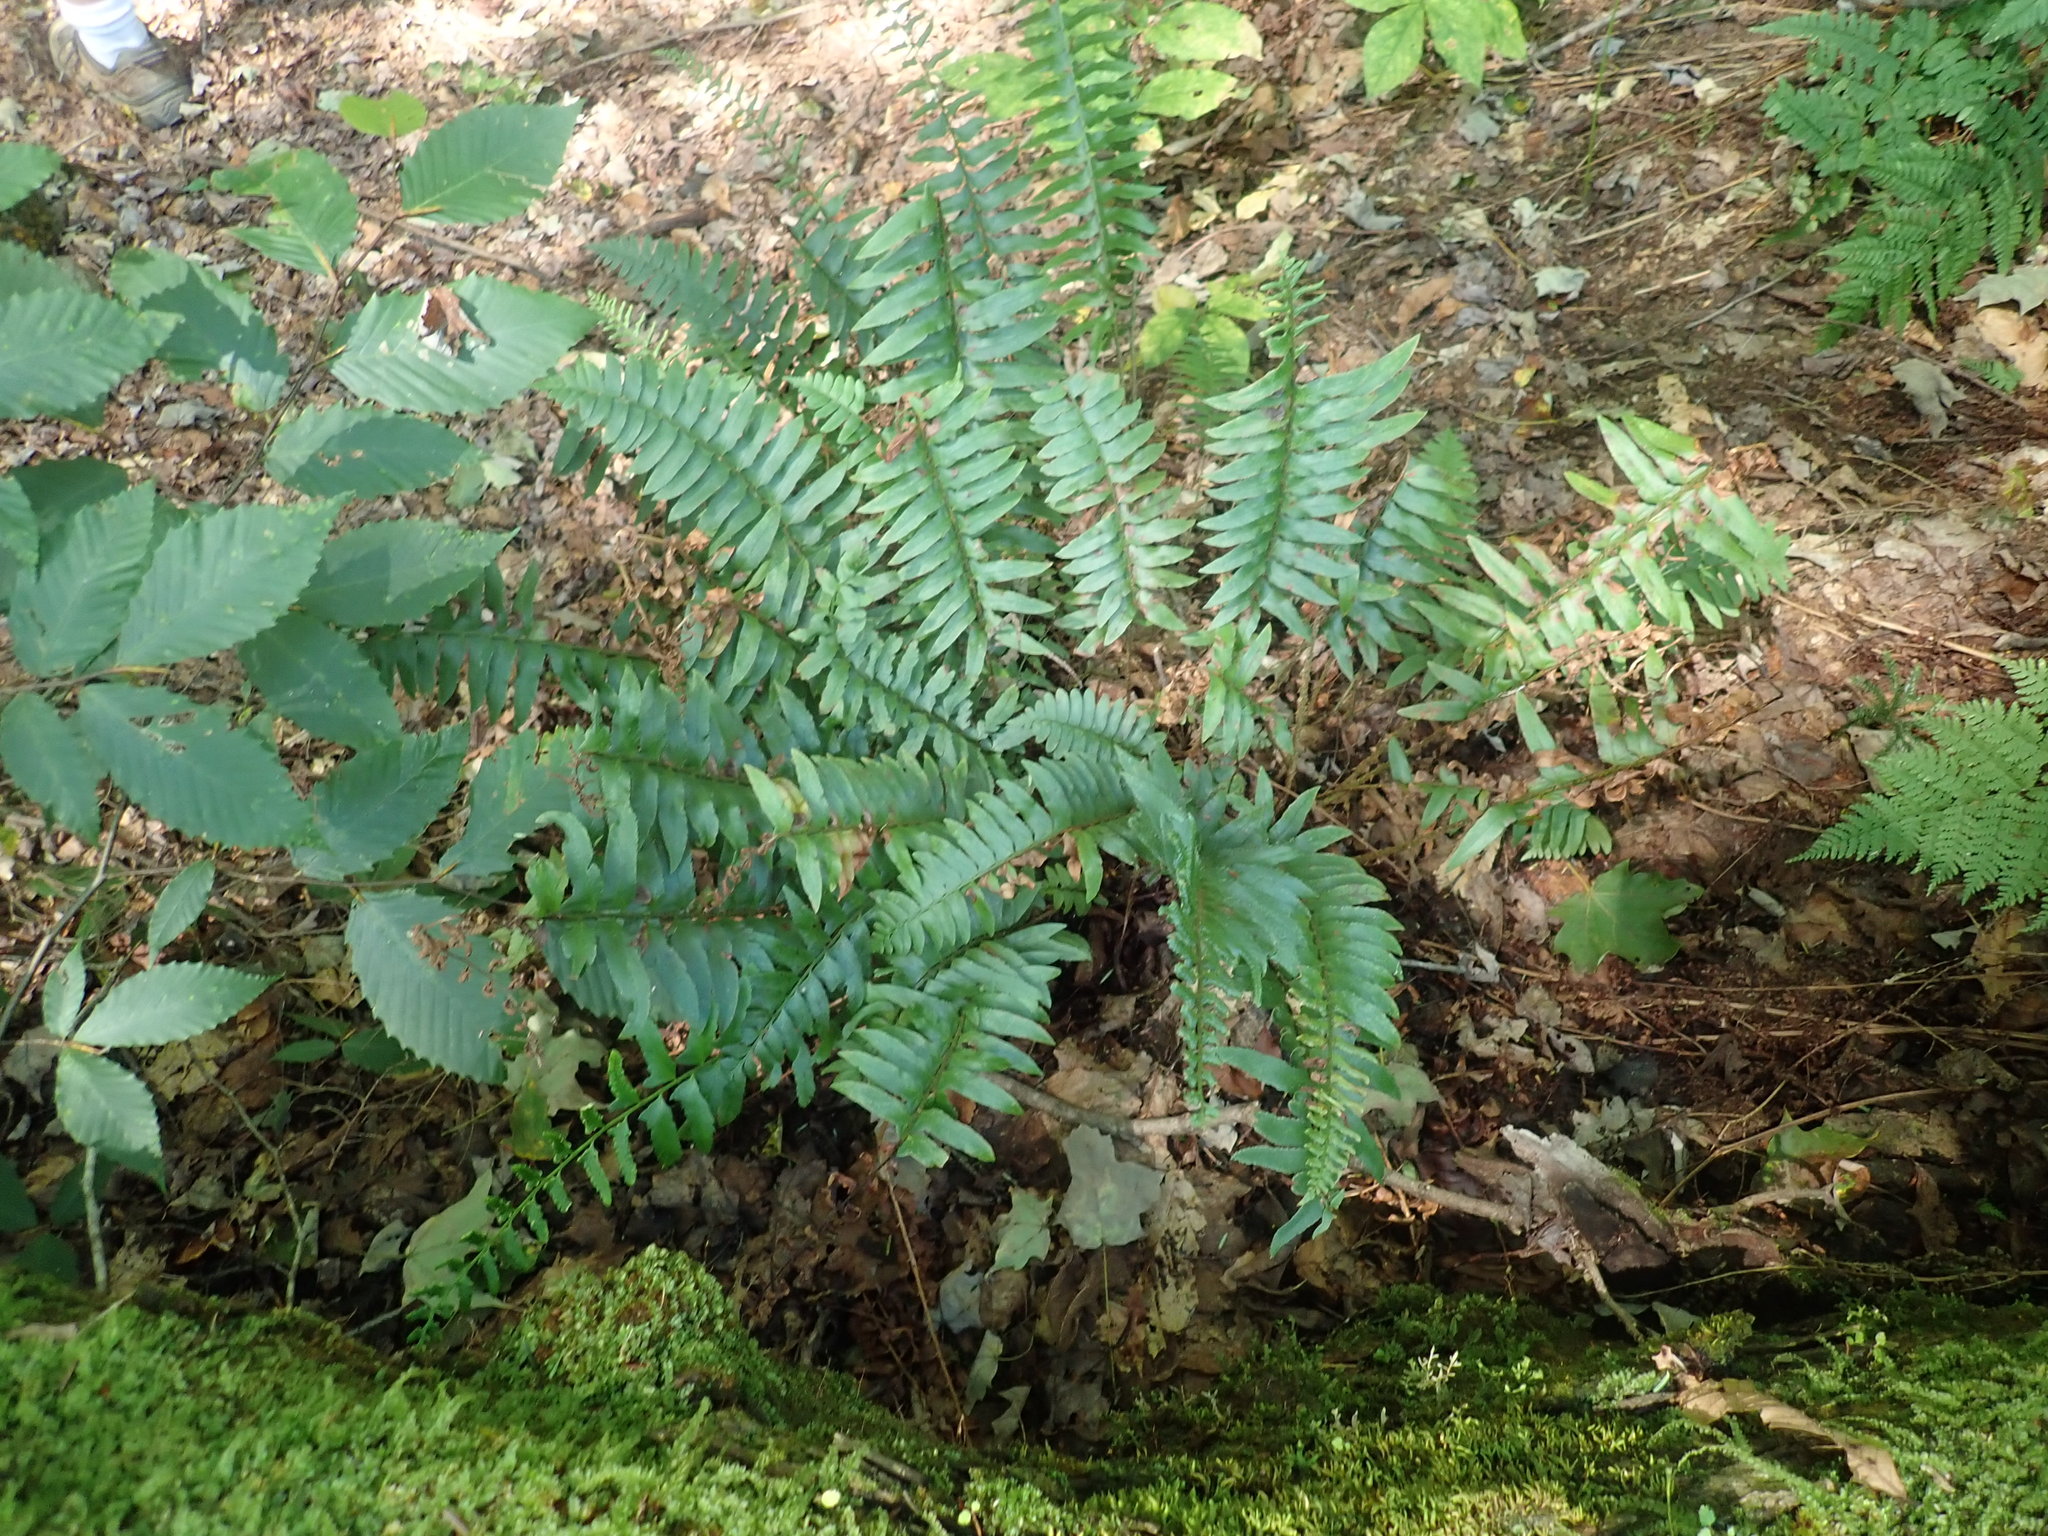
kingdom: Plantae
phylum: Tracheophyta
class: Polypodiopsida
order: Polypodiales
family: Dryopteridaceae
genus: Polystichum
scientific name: Polystichum acrostichoides
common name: Christmas fern
